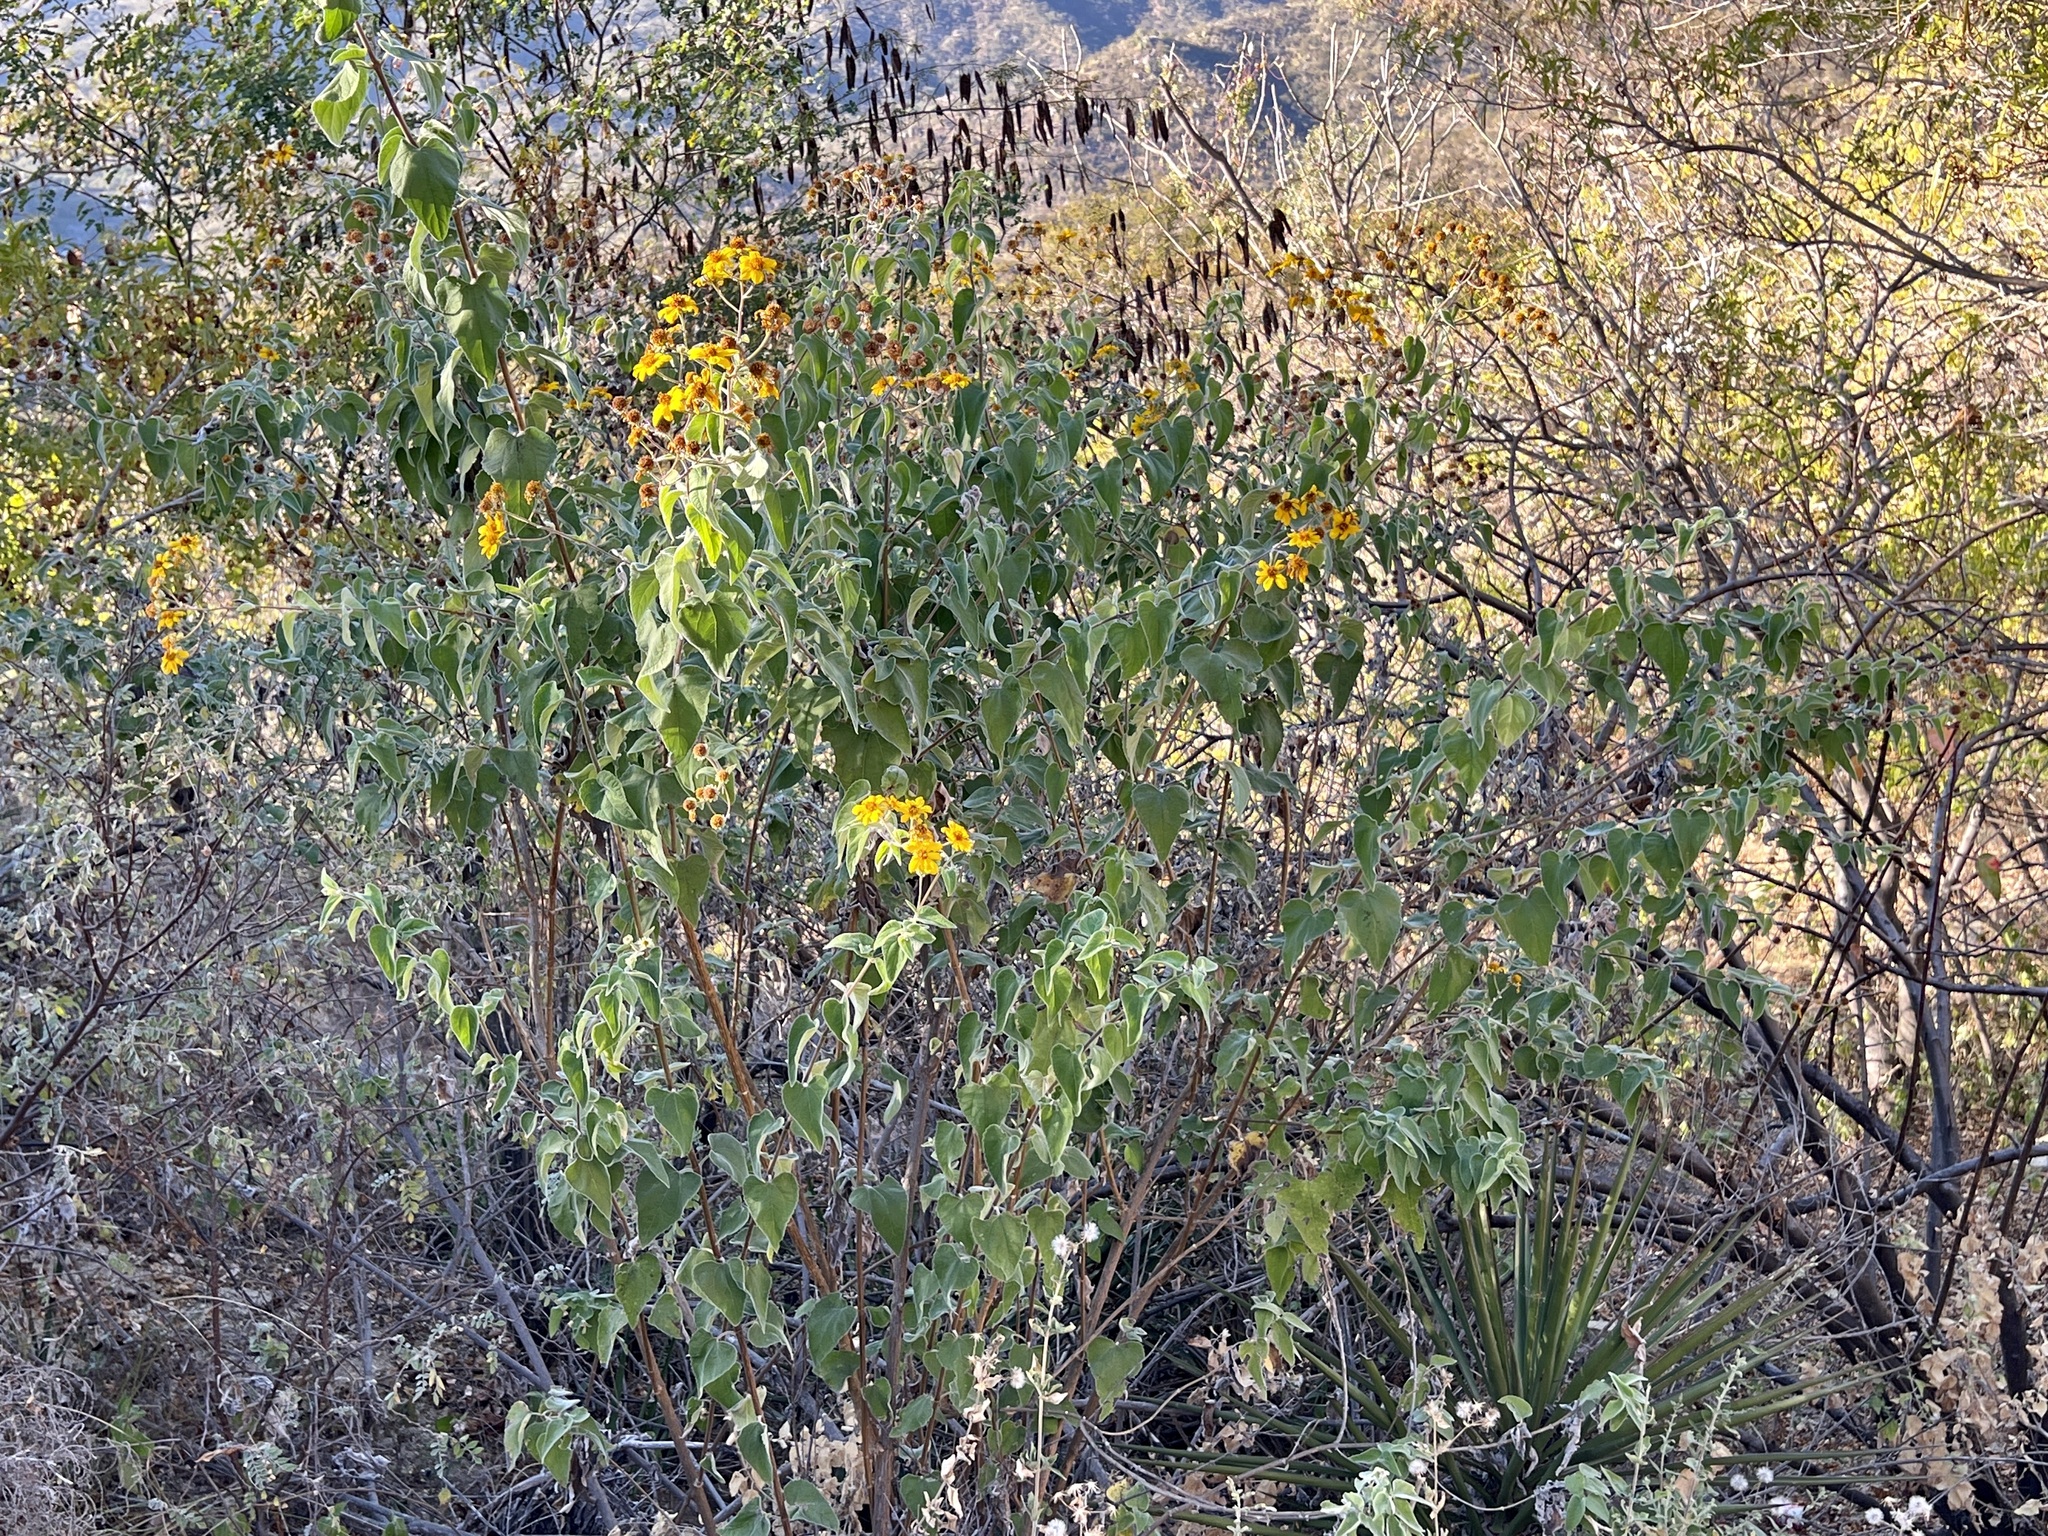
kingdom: Plantae
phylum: Tracheophyta
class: Magnoliopsida
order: Asterales
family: Asteraceae
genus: Bahiopsis
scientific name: Bahiopsis tomentosa
